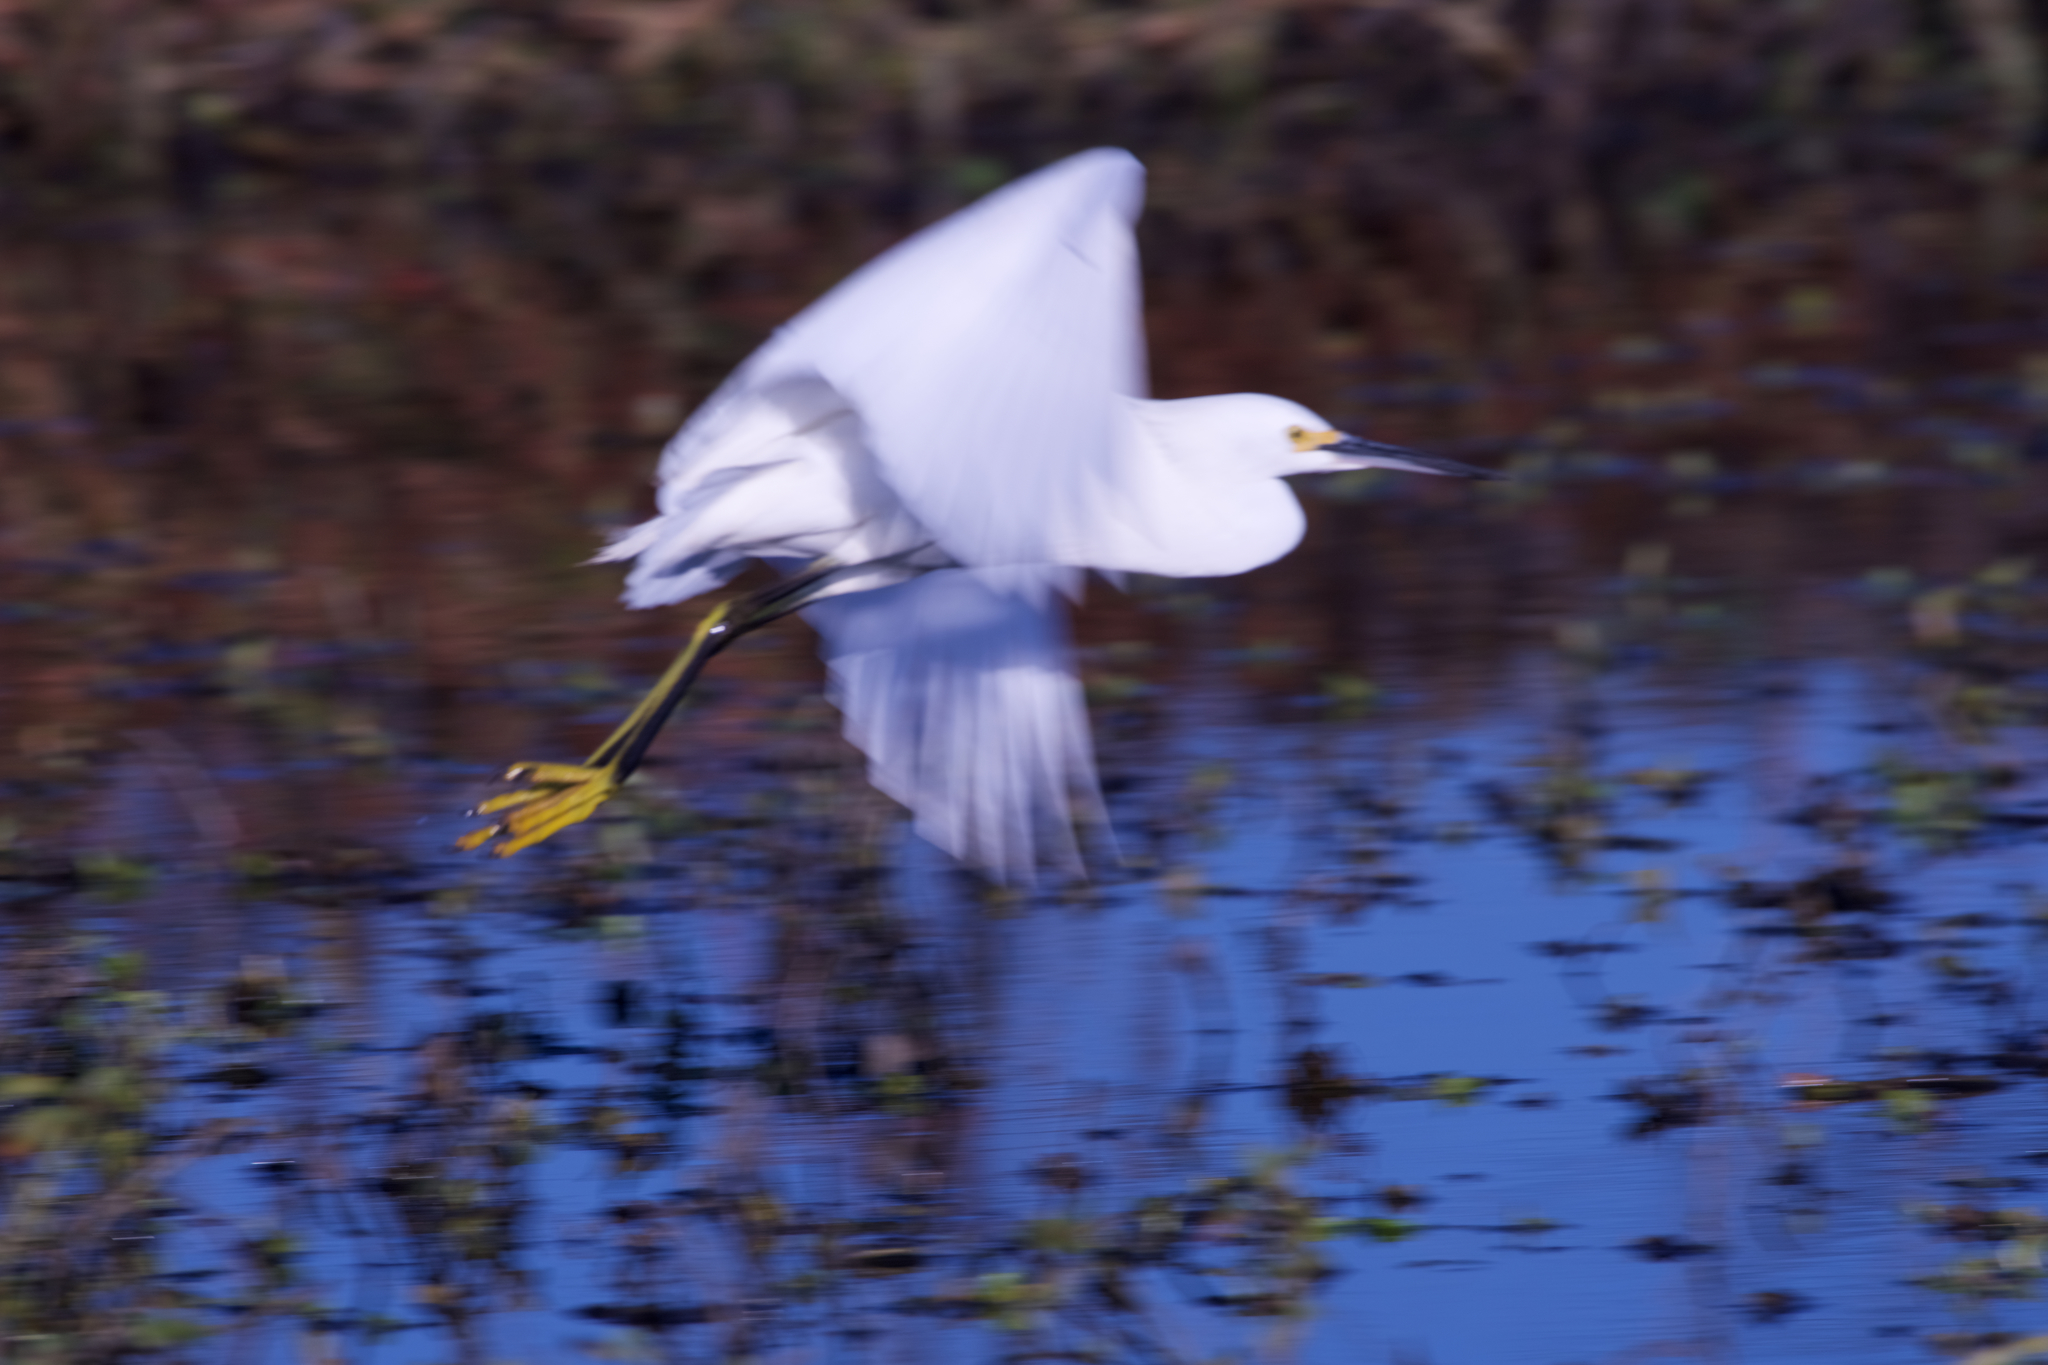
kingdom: Animalia
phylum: Chordata
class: Aves
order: Pelecaniformes
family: Ardeidae
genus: Egretta
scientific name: Egretta thula
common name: Snowy egret
